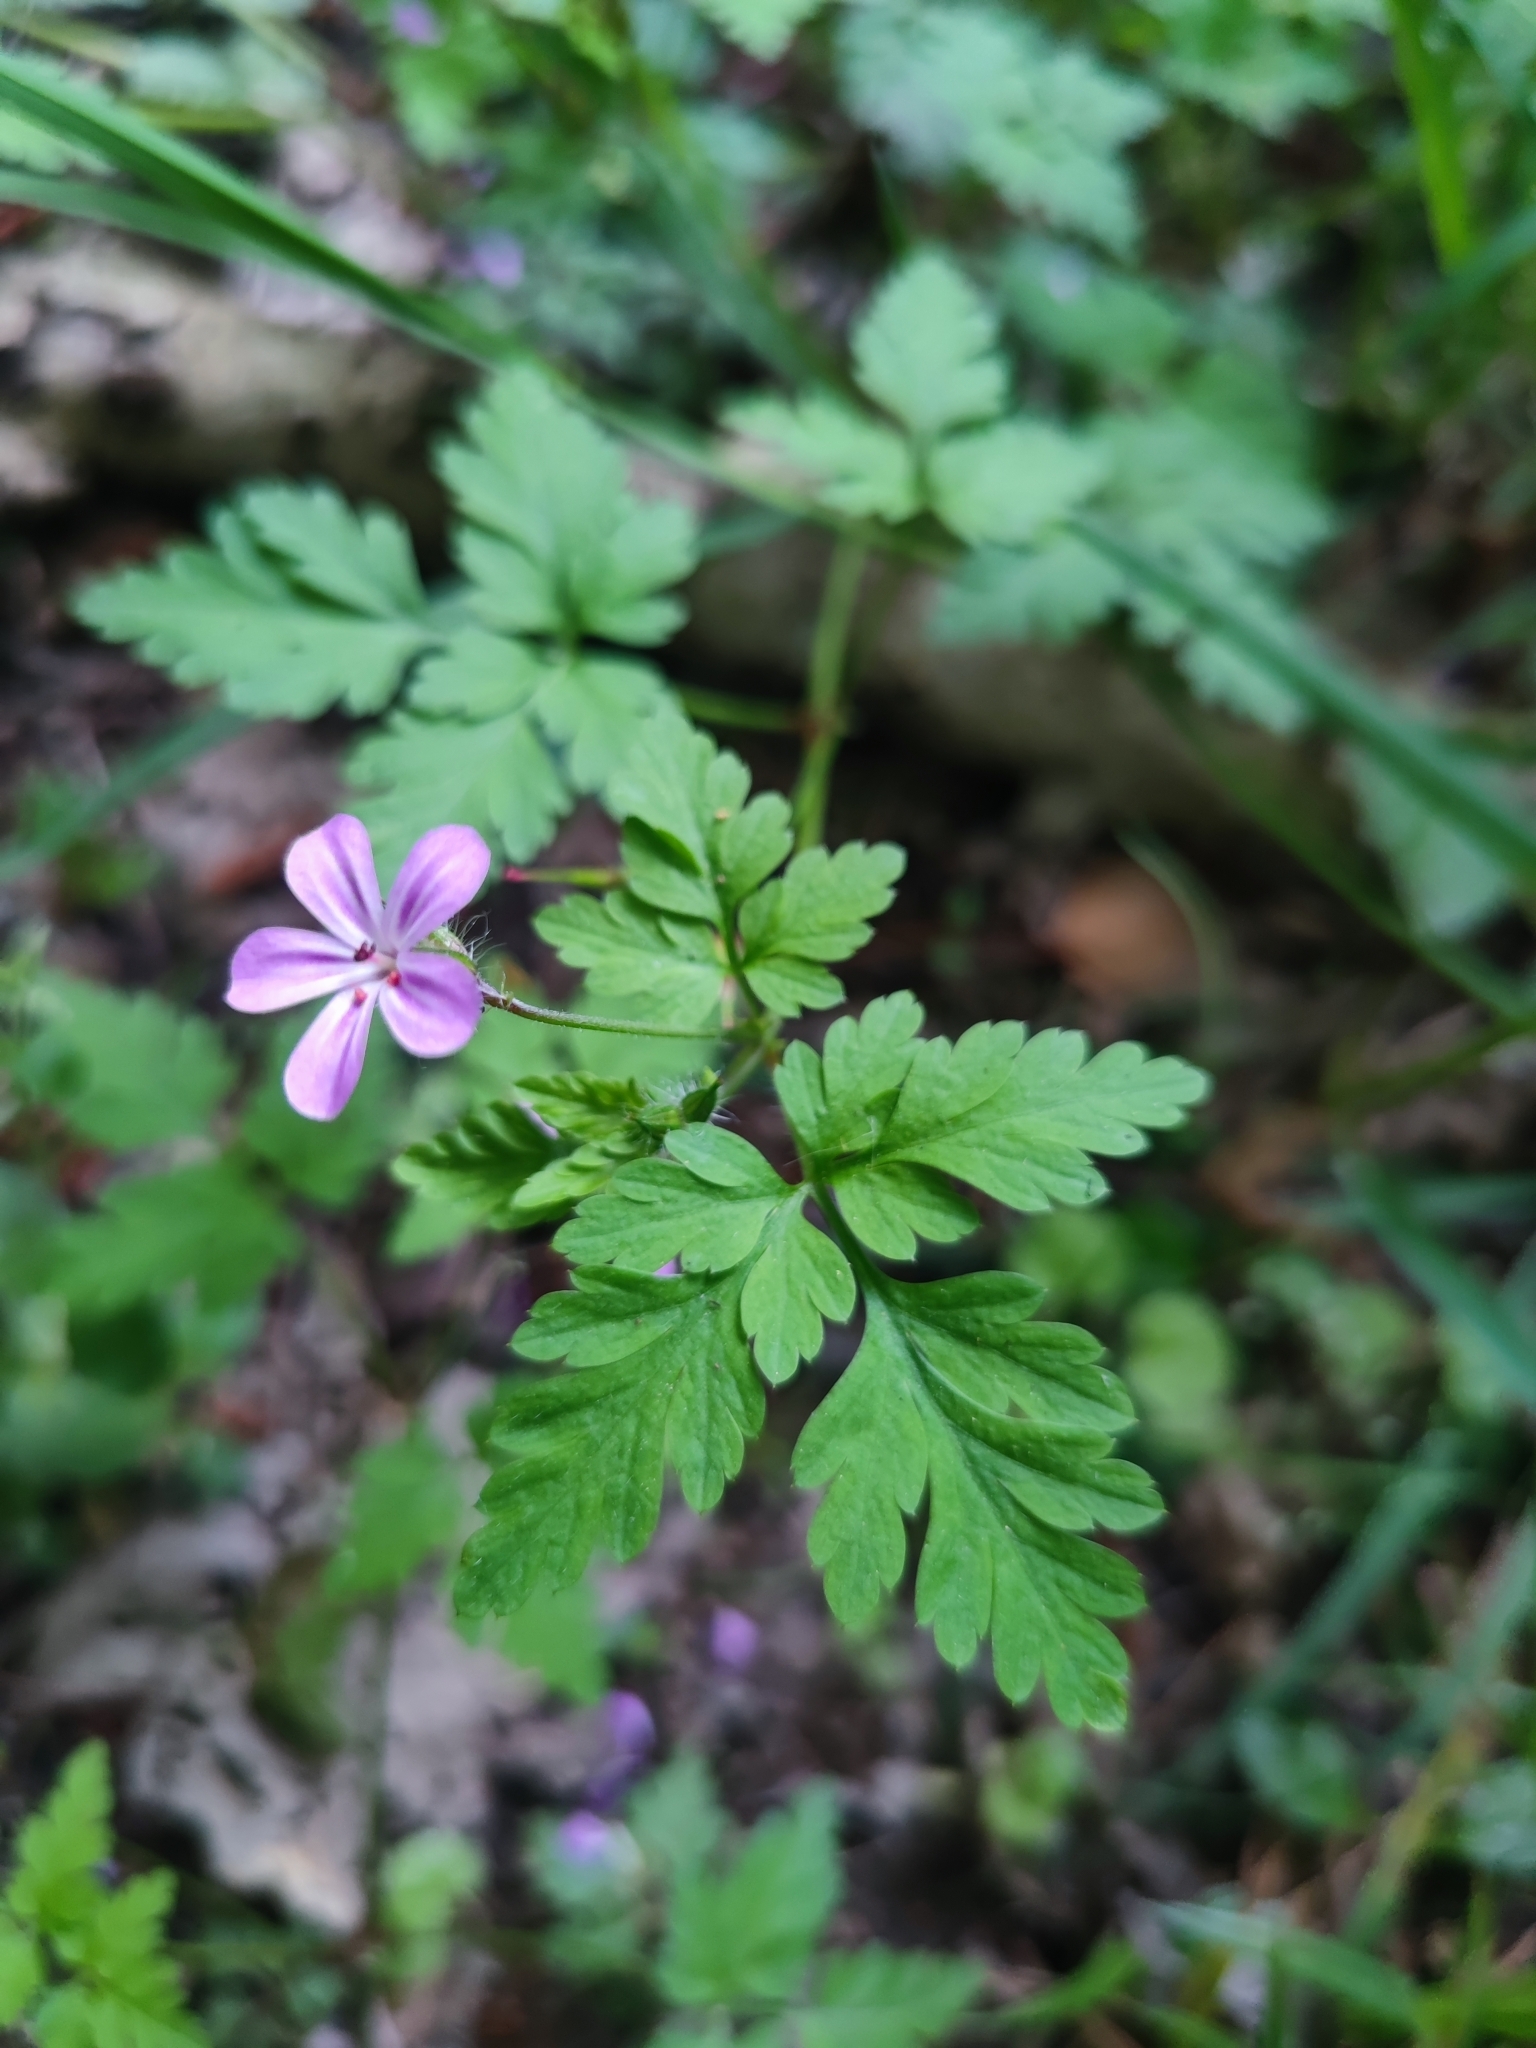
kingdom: Plantae
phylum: Tracheophyta
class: Magnoliopsida
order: Geraniales
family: Geraniaceae
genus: Geranium
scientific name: Geranium robertianum
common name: Herb-robert
